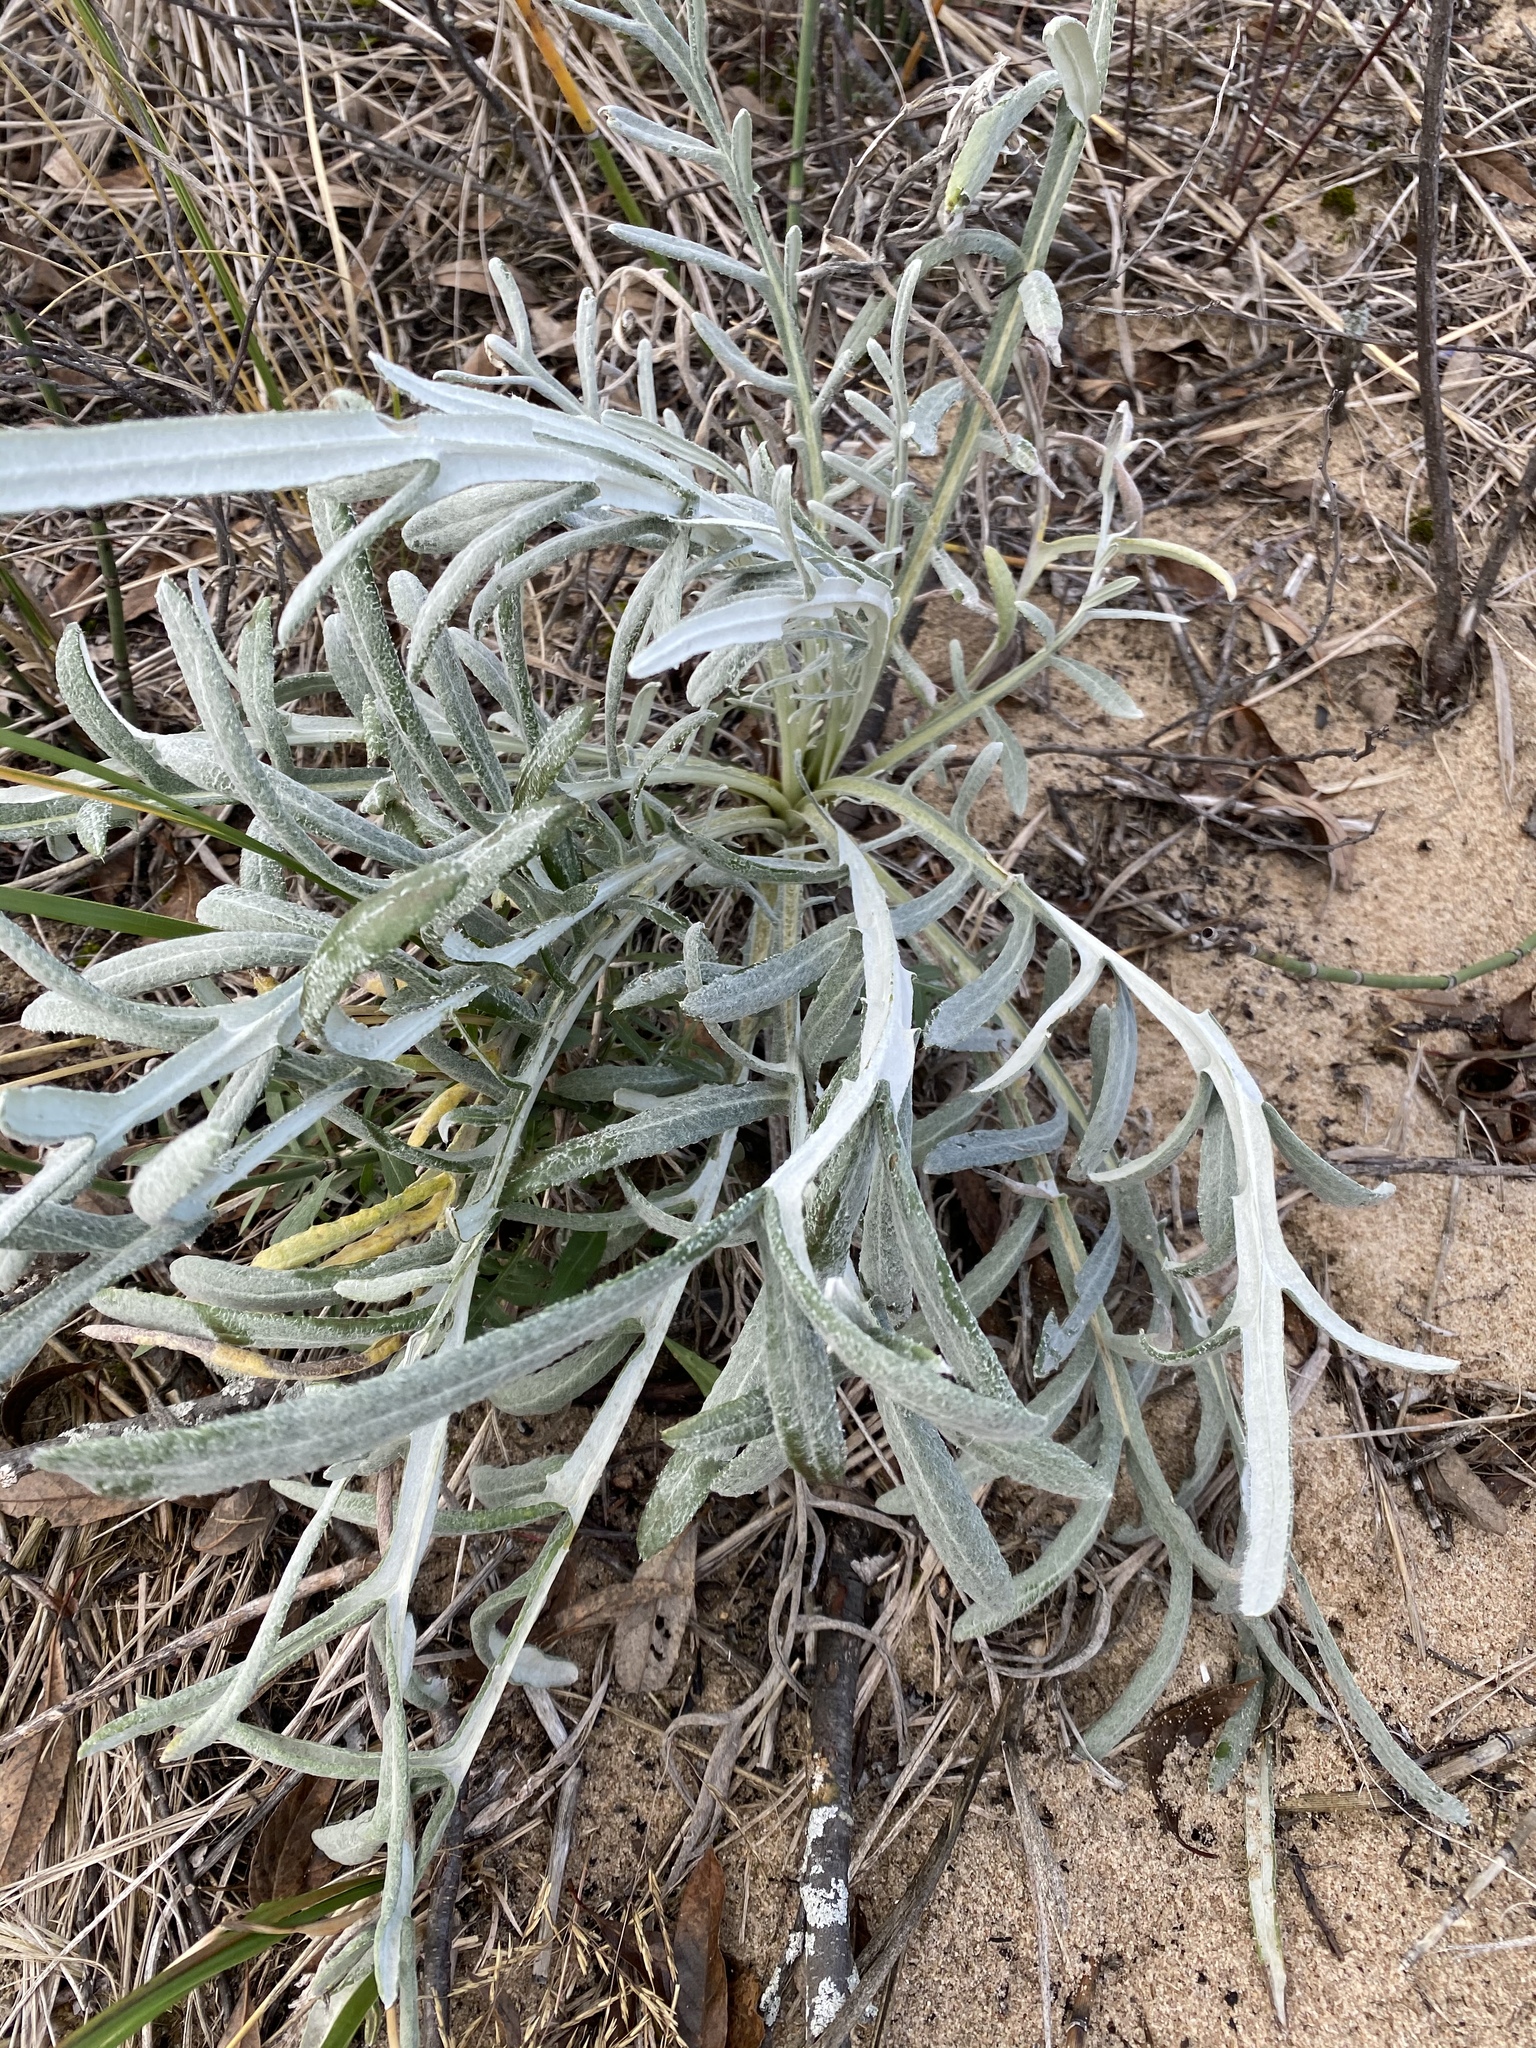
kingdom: Plantae
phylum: Tracheophyta
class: Magnoliopsida
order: Asterales
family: Asteraceae
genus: Cirsium
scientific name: Cirsium pitcheri
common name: Dune thistle
